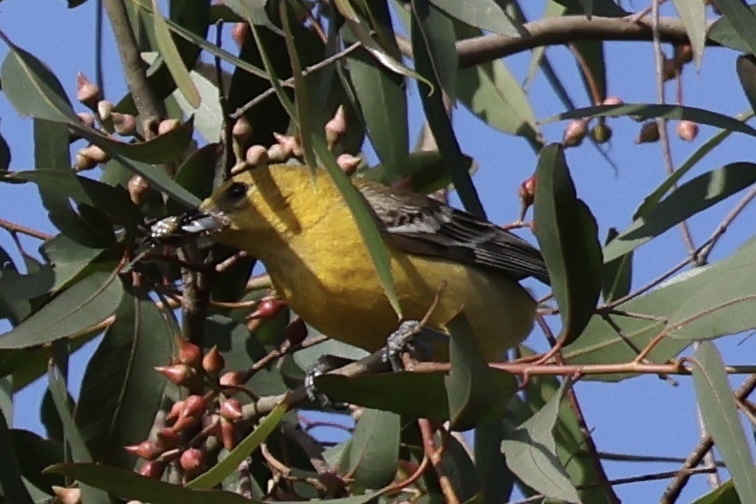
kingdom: Animalia
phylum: Chordata
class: Aves
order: Passeriformes
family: Icteridae
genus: Icterus
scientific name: Icterus cucullatus
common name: Hooded oriole
